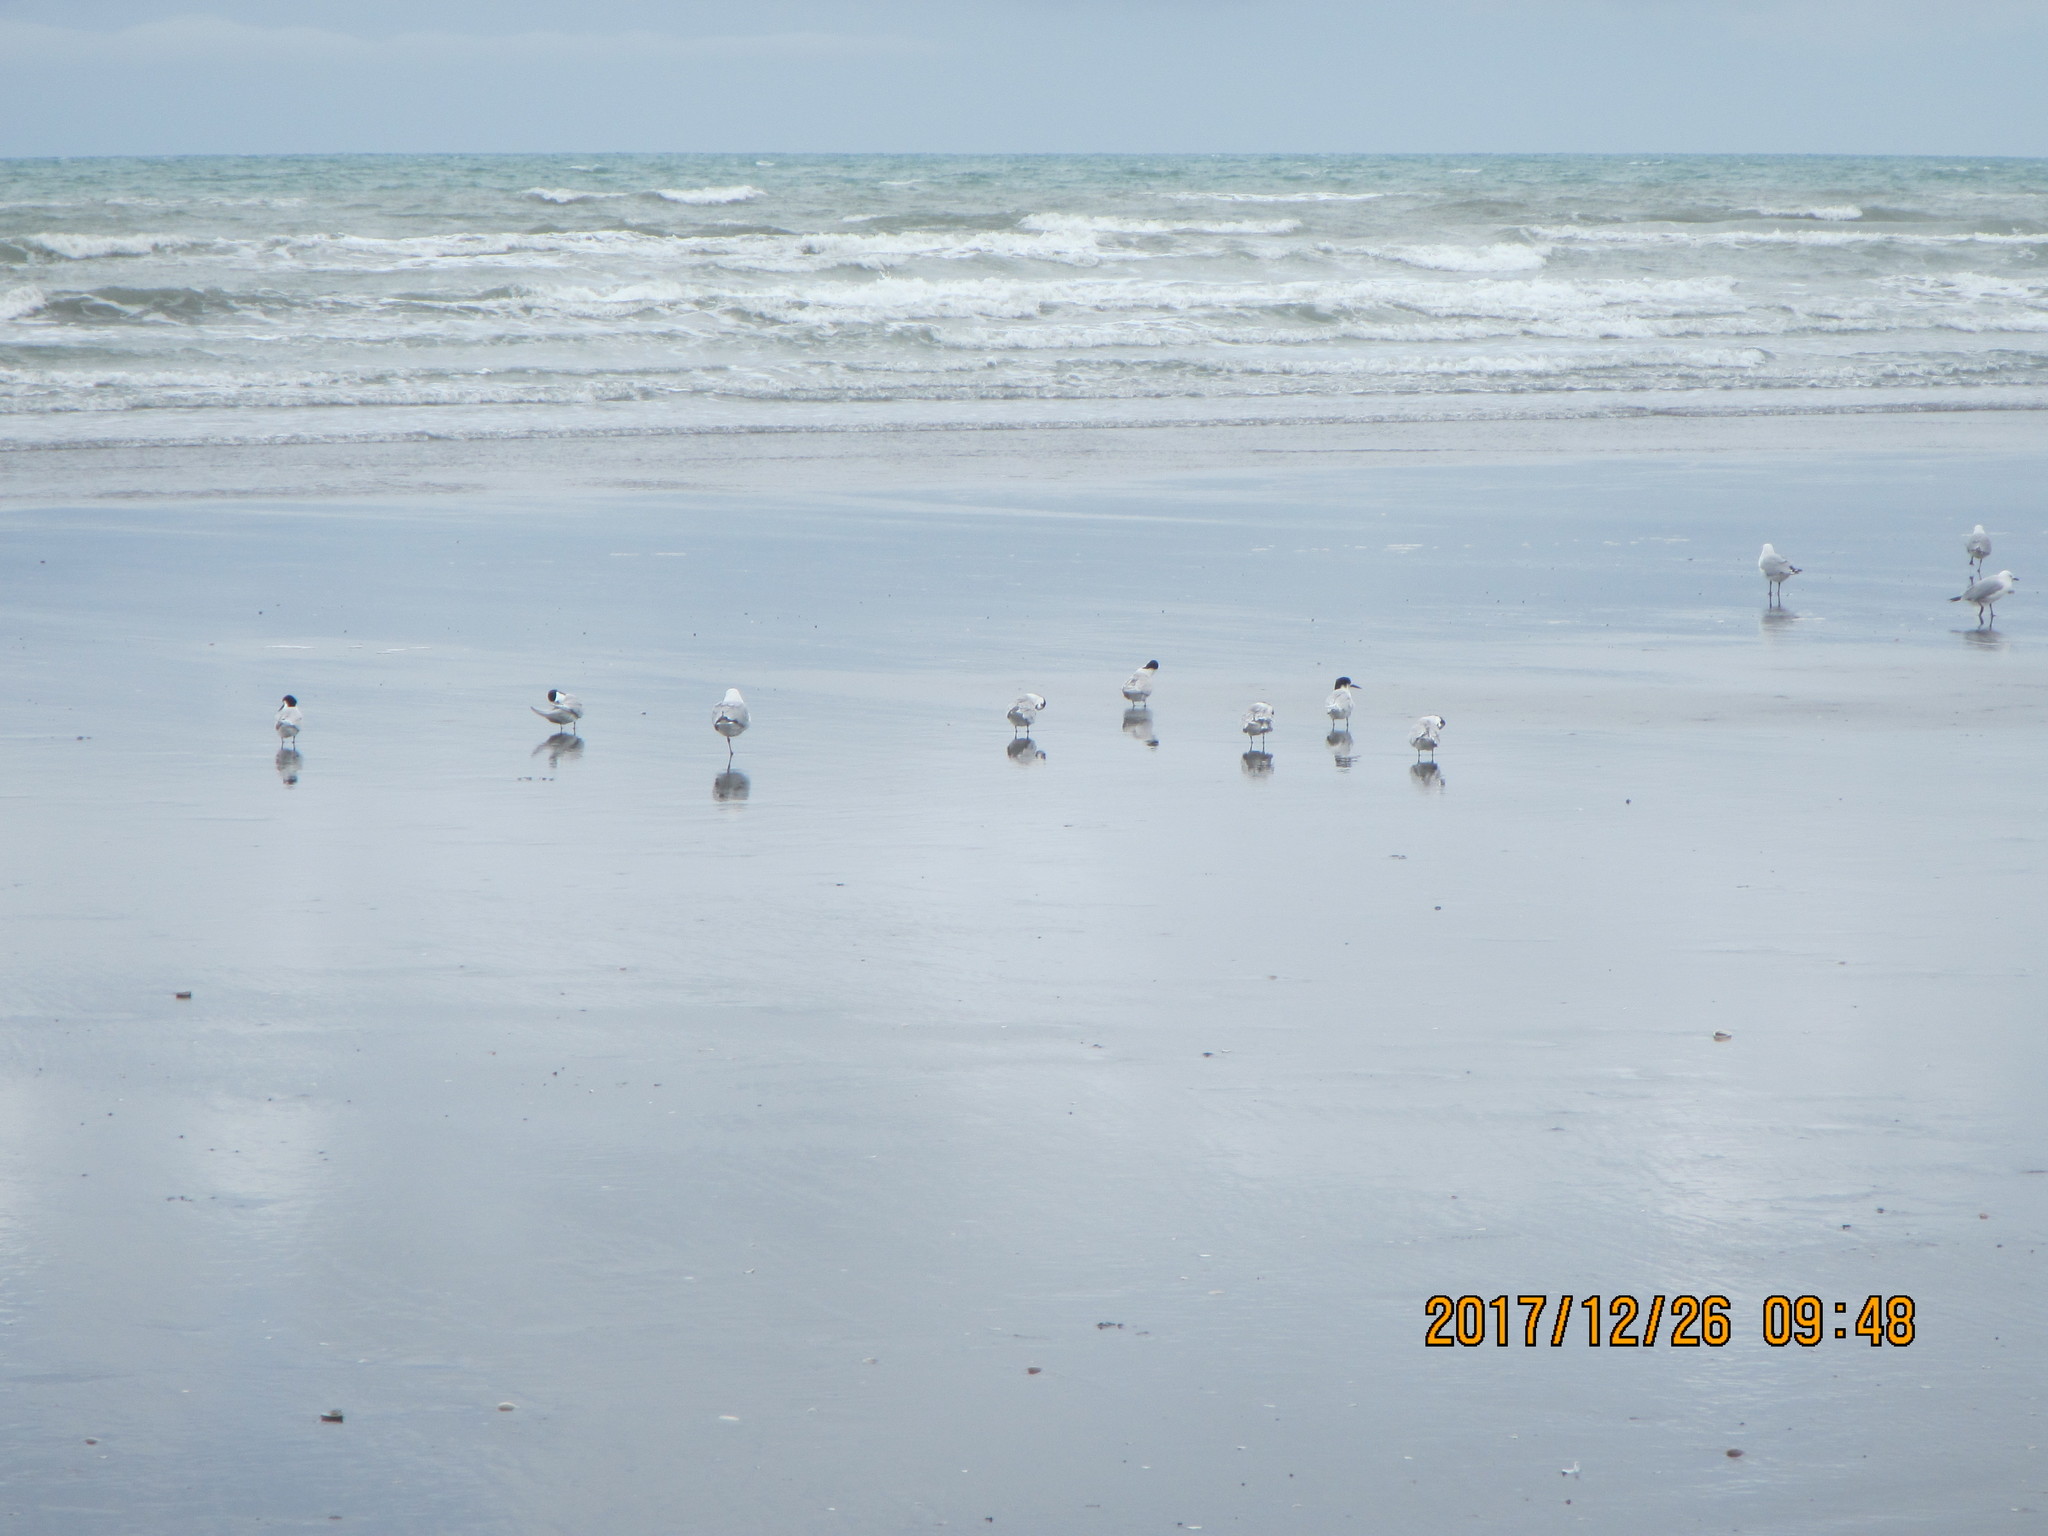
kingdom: Animalia
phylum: Chordata
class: Aves
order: Charadriiformes
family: Laridae
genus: Sterna
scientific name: Sterna striata
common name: White-fronted tern
